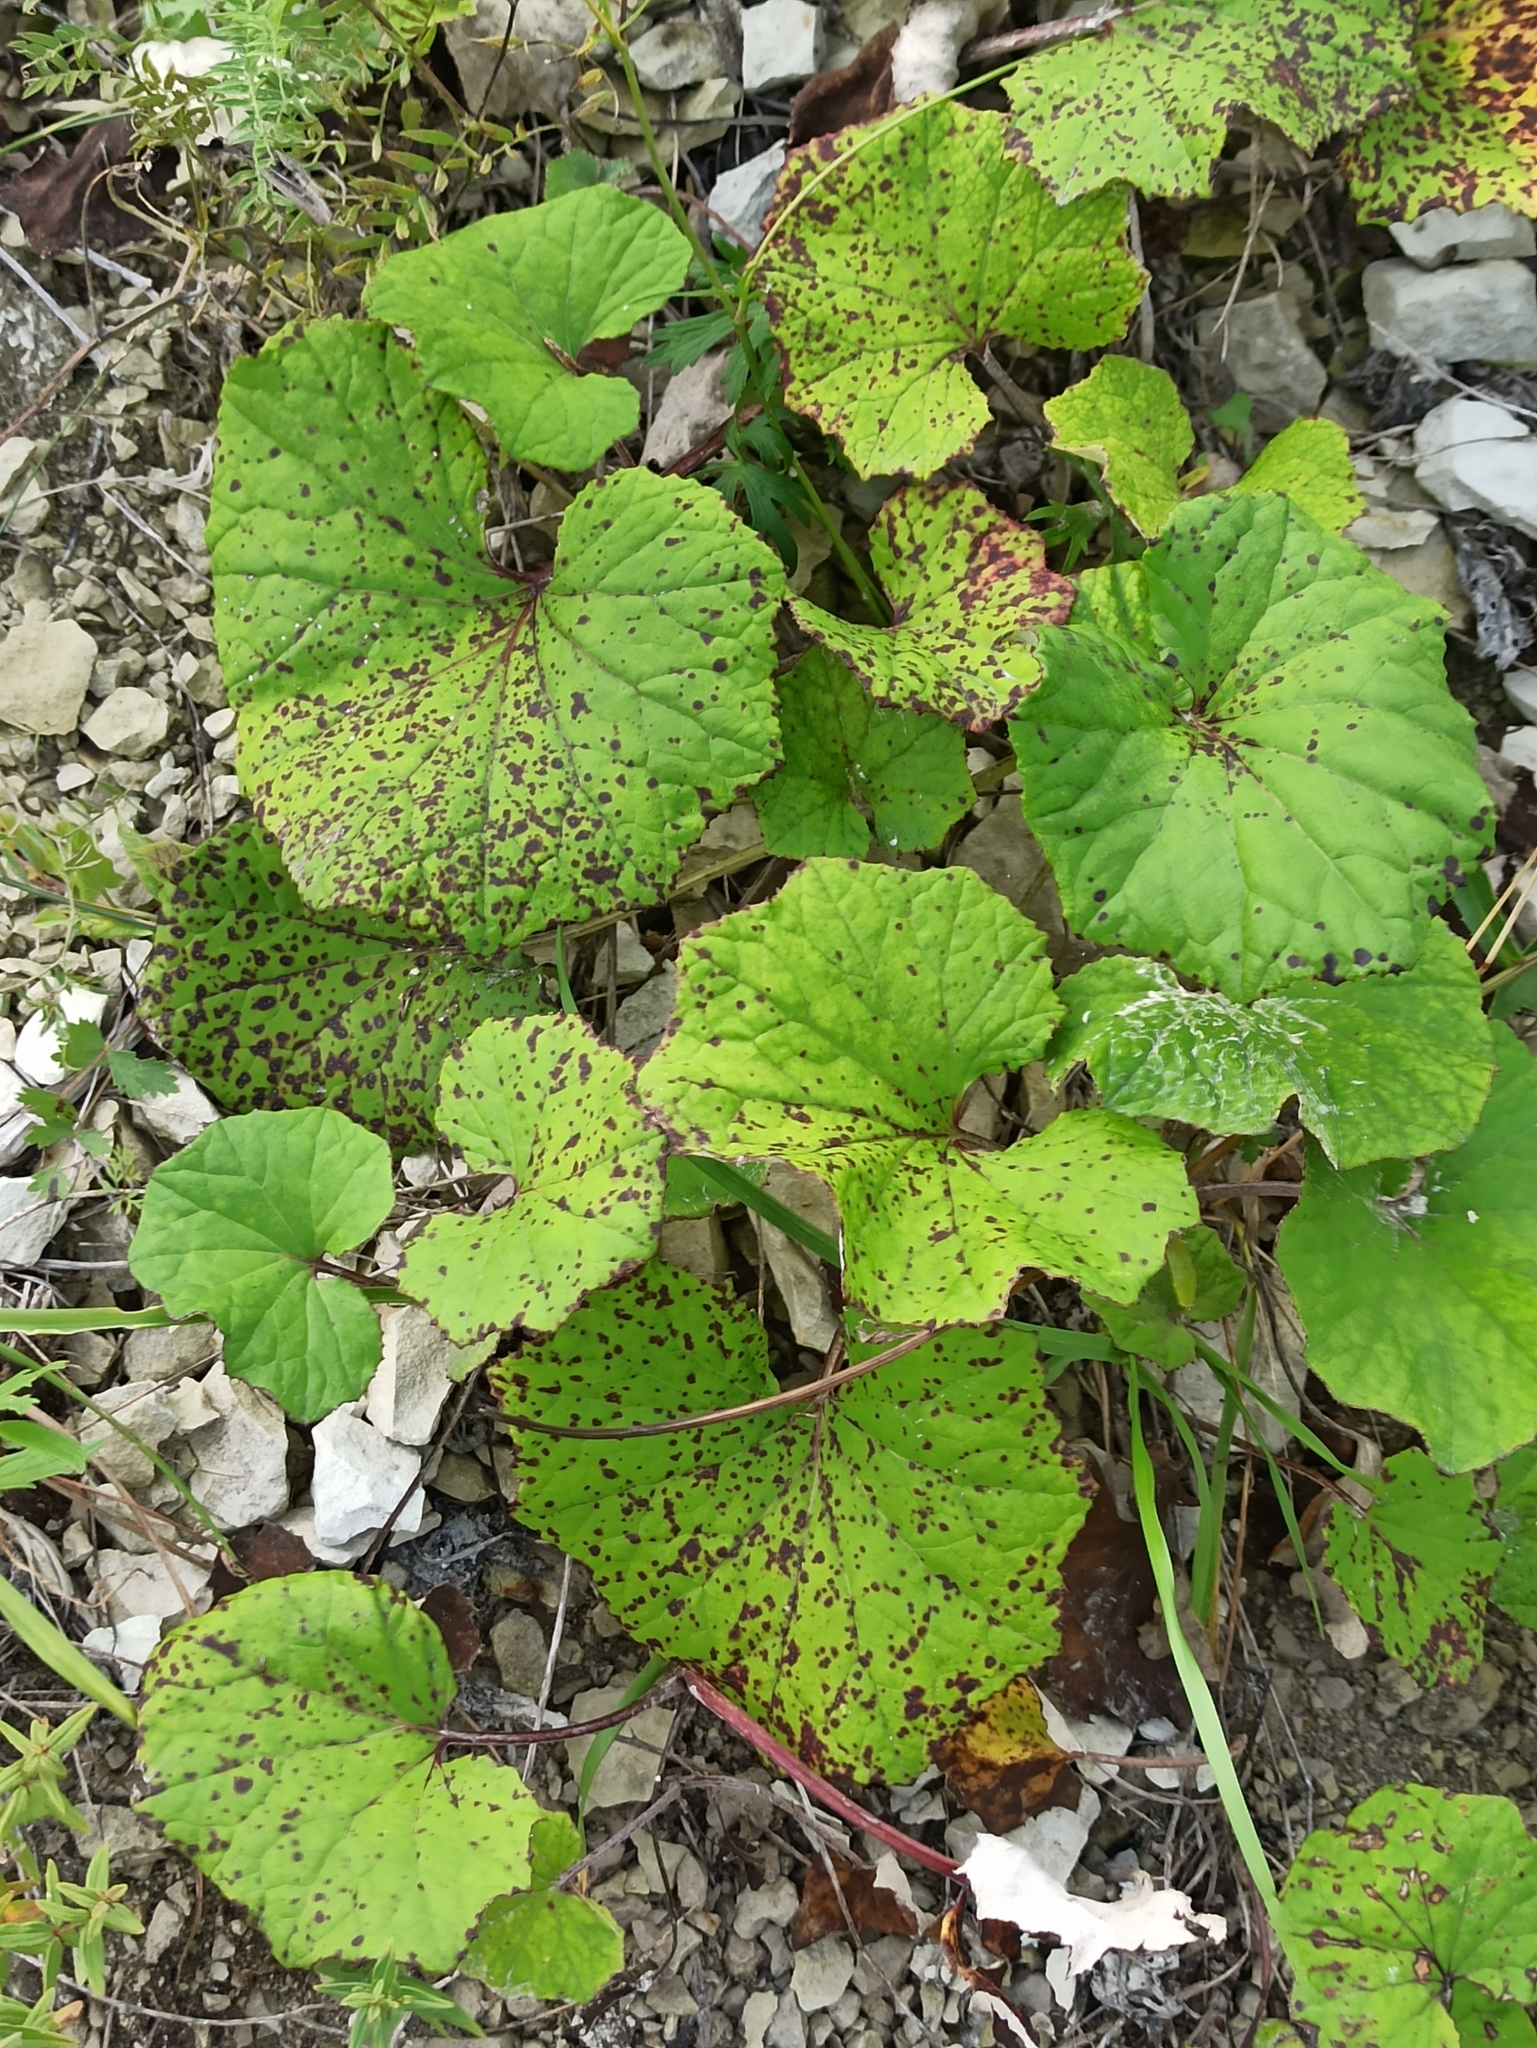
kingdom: Plantae
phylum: Tracheophyta
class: Magnoliopsida
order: Asterales
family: Asteraceae
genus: Tussilago
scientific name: Tussilago farfara
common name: Coltsfoot
